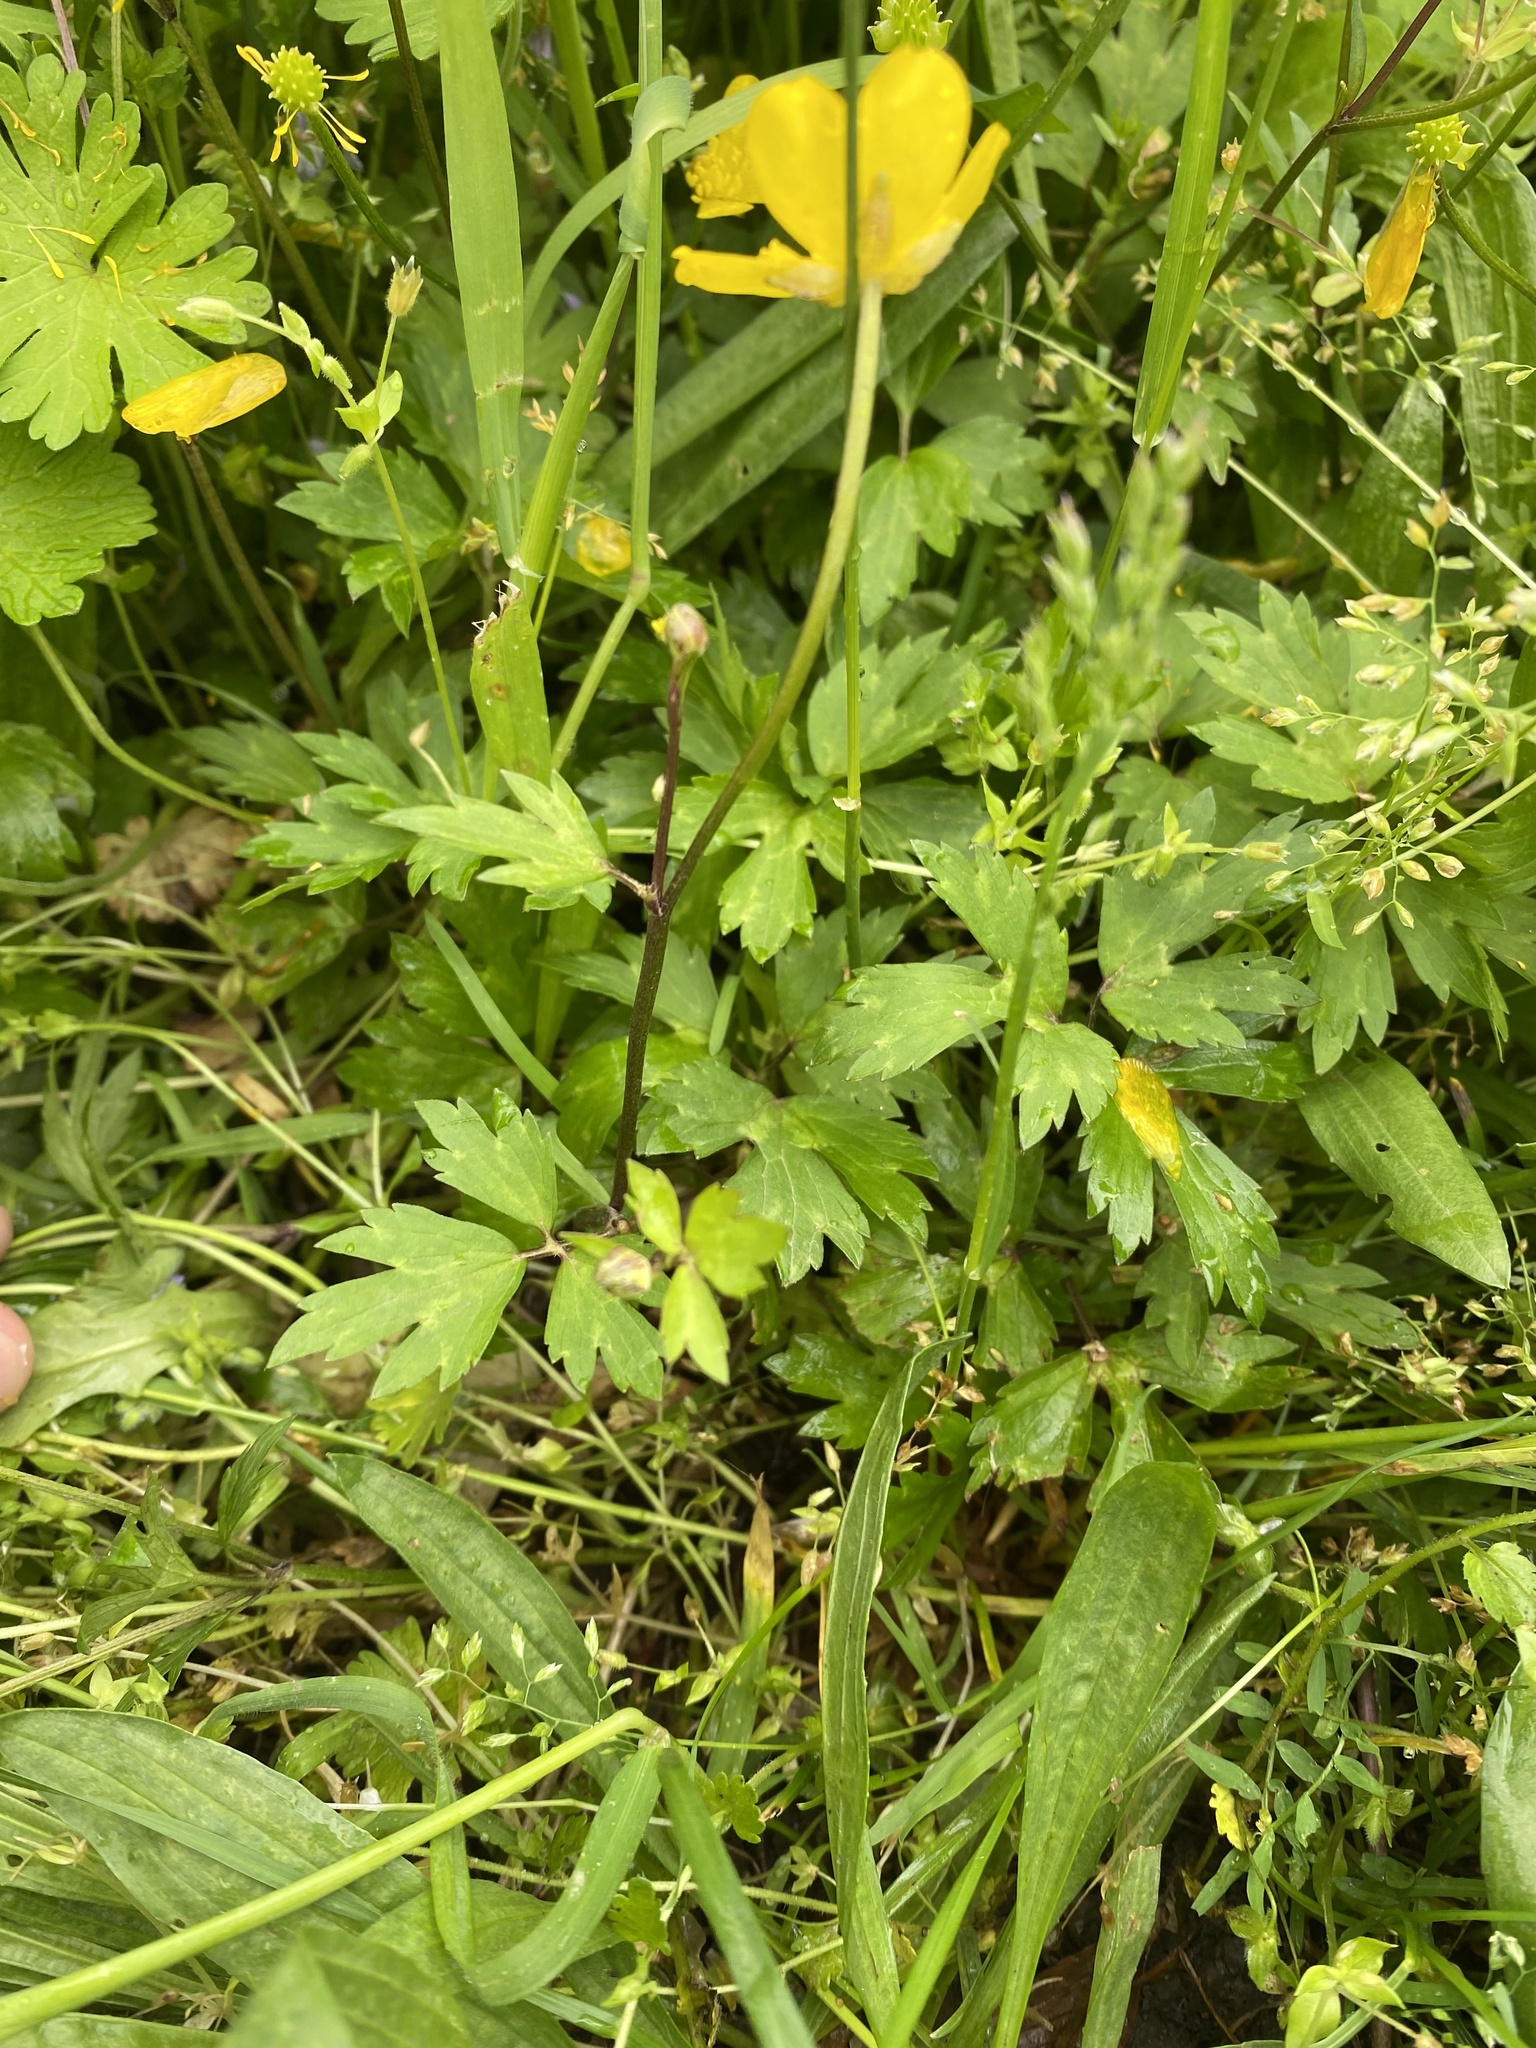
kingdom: Plantae
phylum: Tracheophyta
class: Magnoliopsida
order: Ranunculales
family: Ranunculaceae
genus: Ranunculus
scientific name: Ranunculus repens
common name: Creeping buttercup
